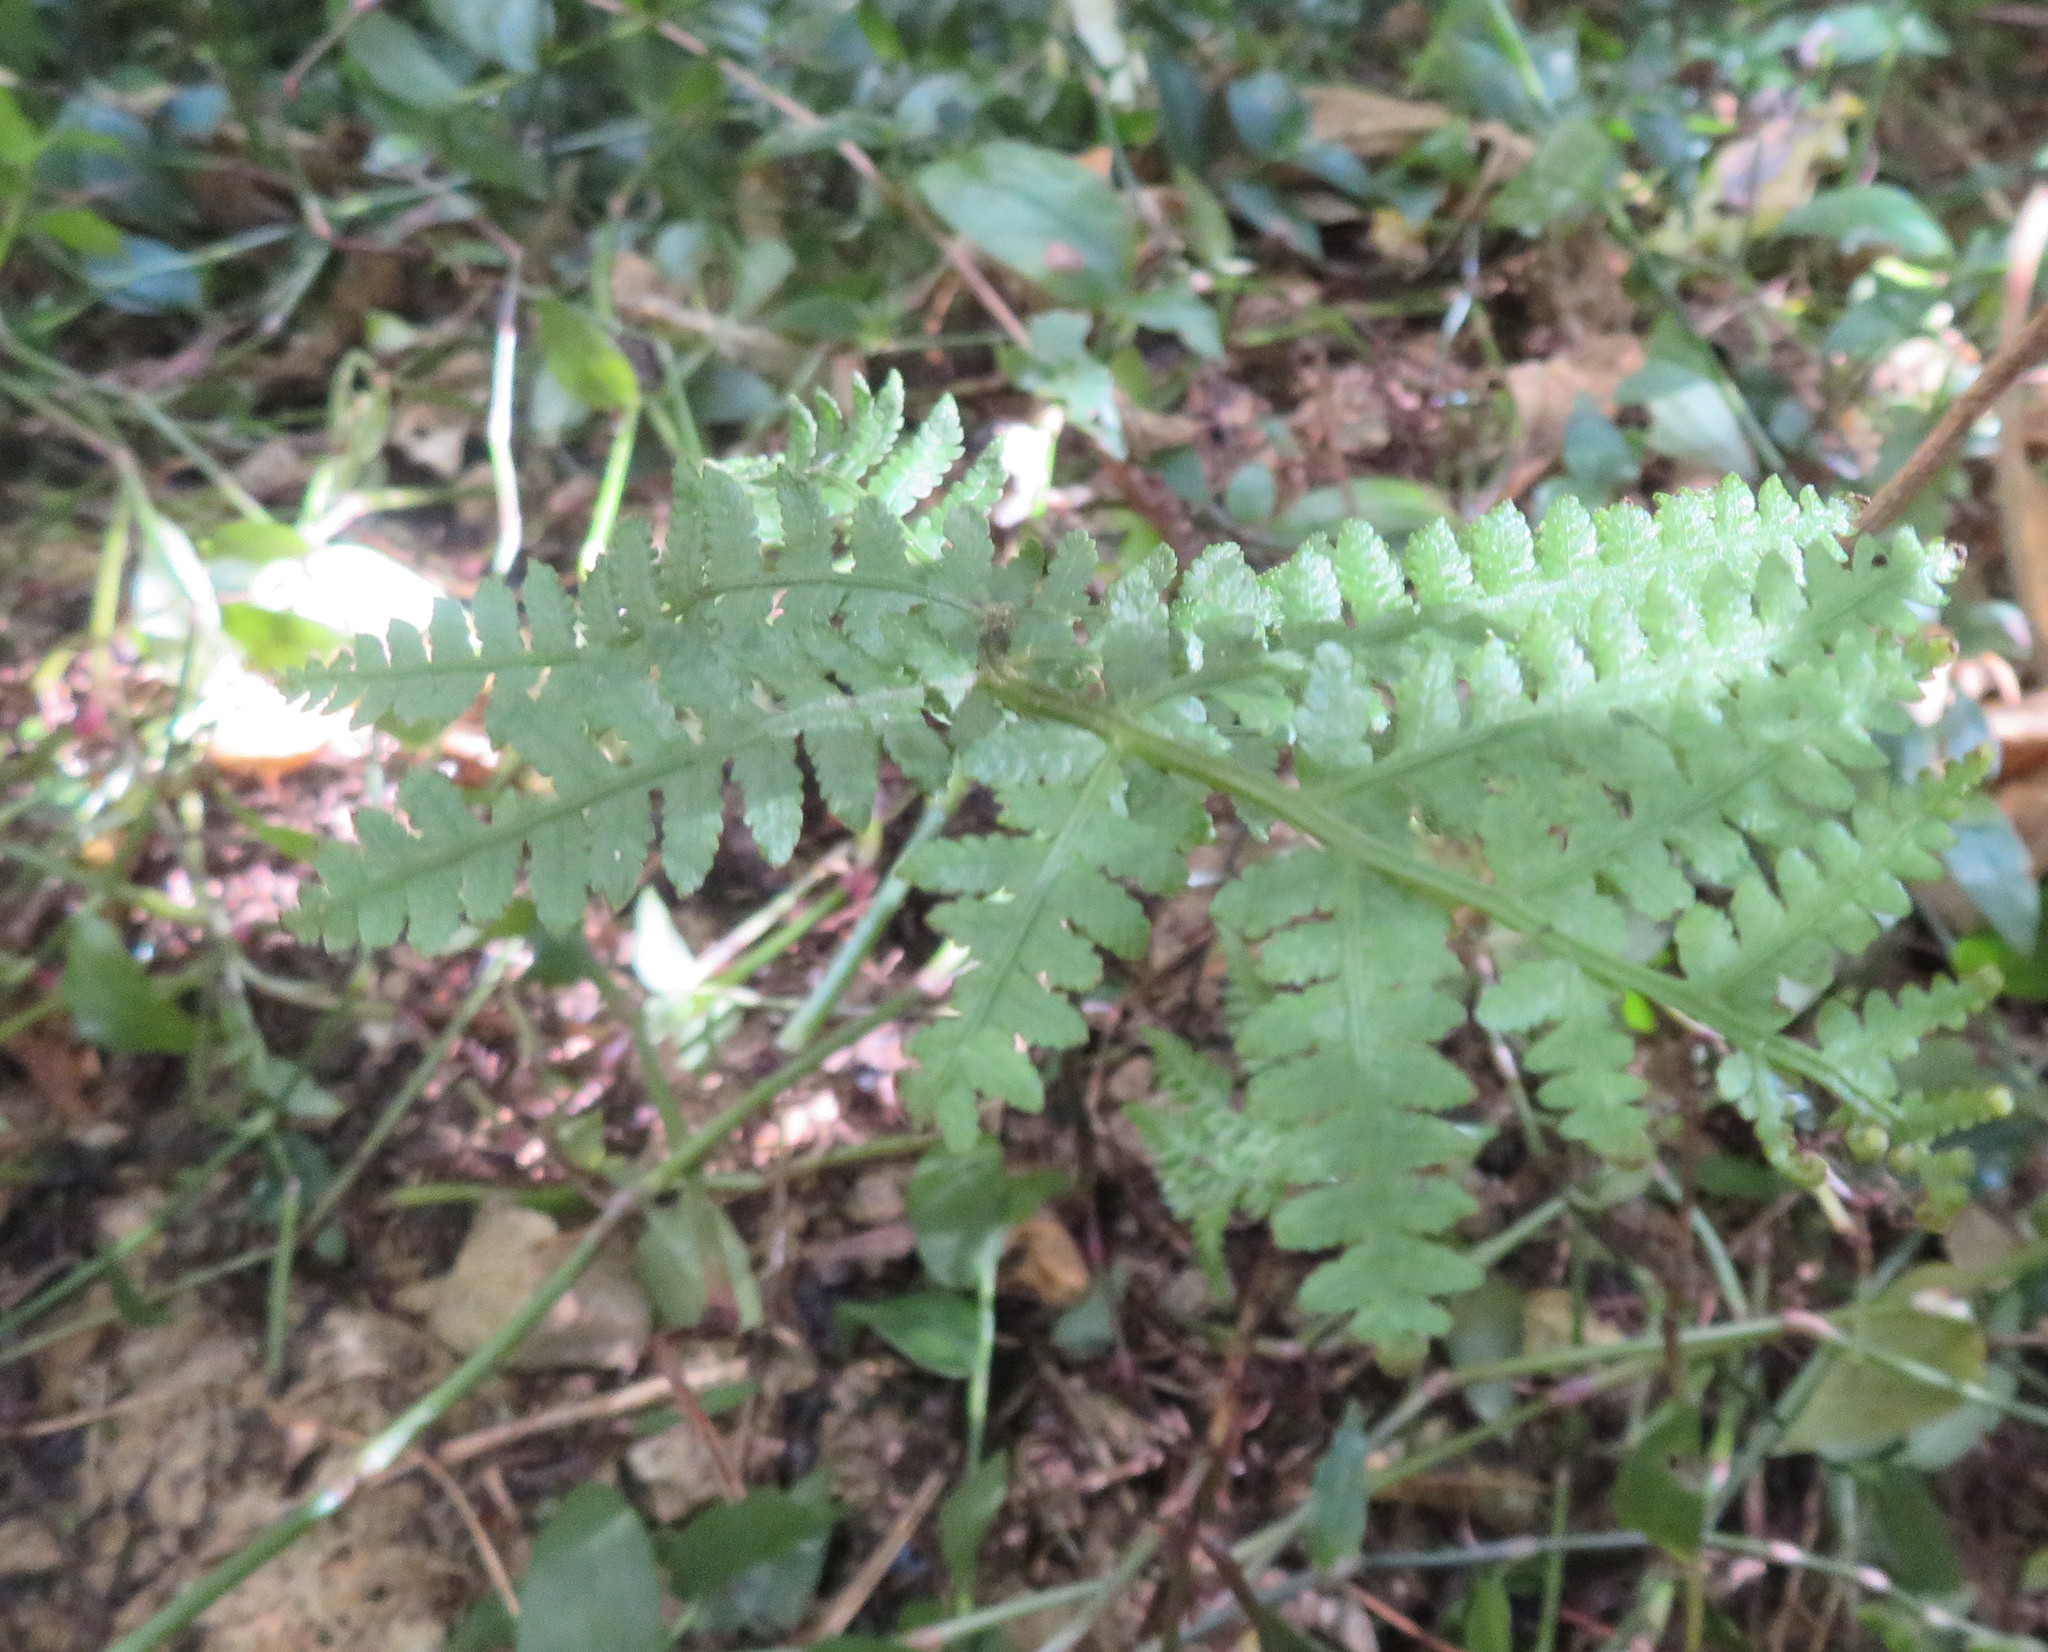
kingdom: Plantae
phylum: Tracheophyta
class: Polypodiopsida
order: Polypodiales
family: Athyriaceae
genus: Diplazium
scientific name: Diplazium congruum
